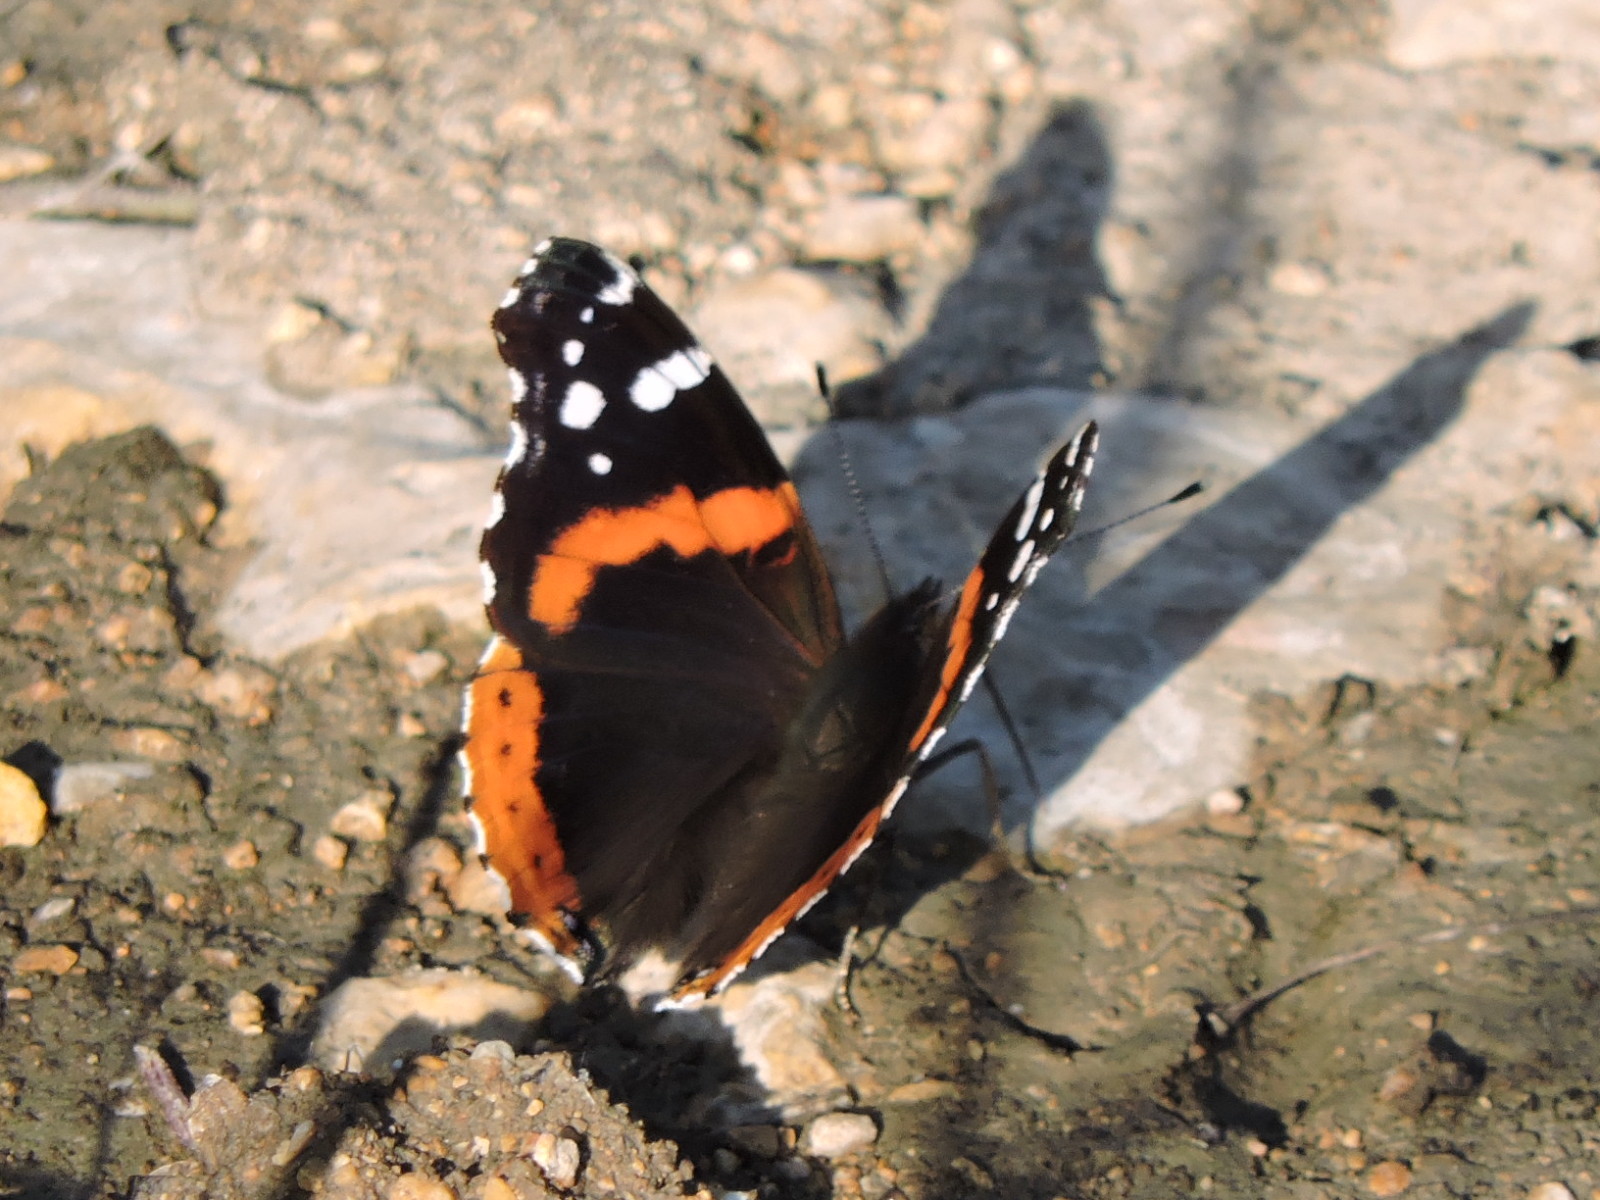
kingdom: Animalia
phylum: Arthropoda
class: Insecta
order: Lepidoptera
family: Nymphalidae
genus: Vanessa
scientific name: Vanessa atalanta
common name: Red admiral
